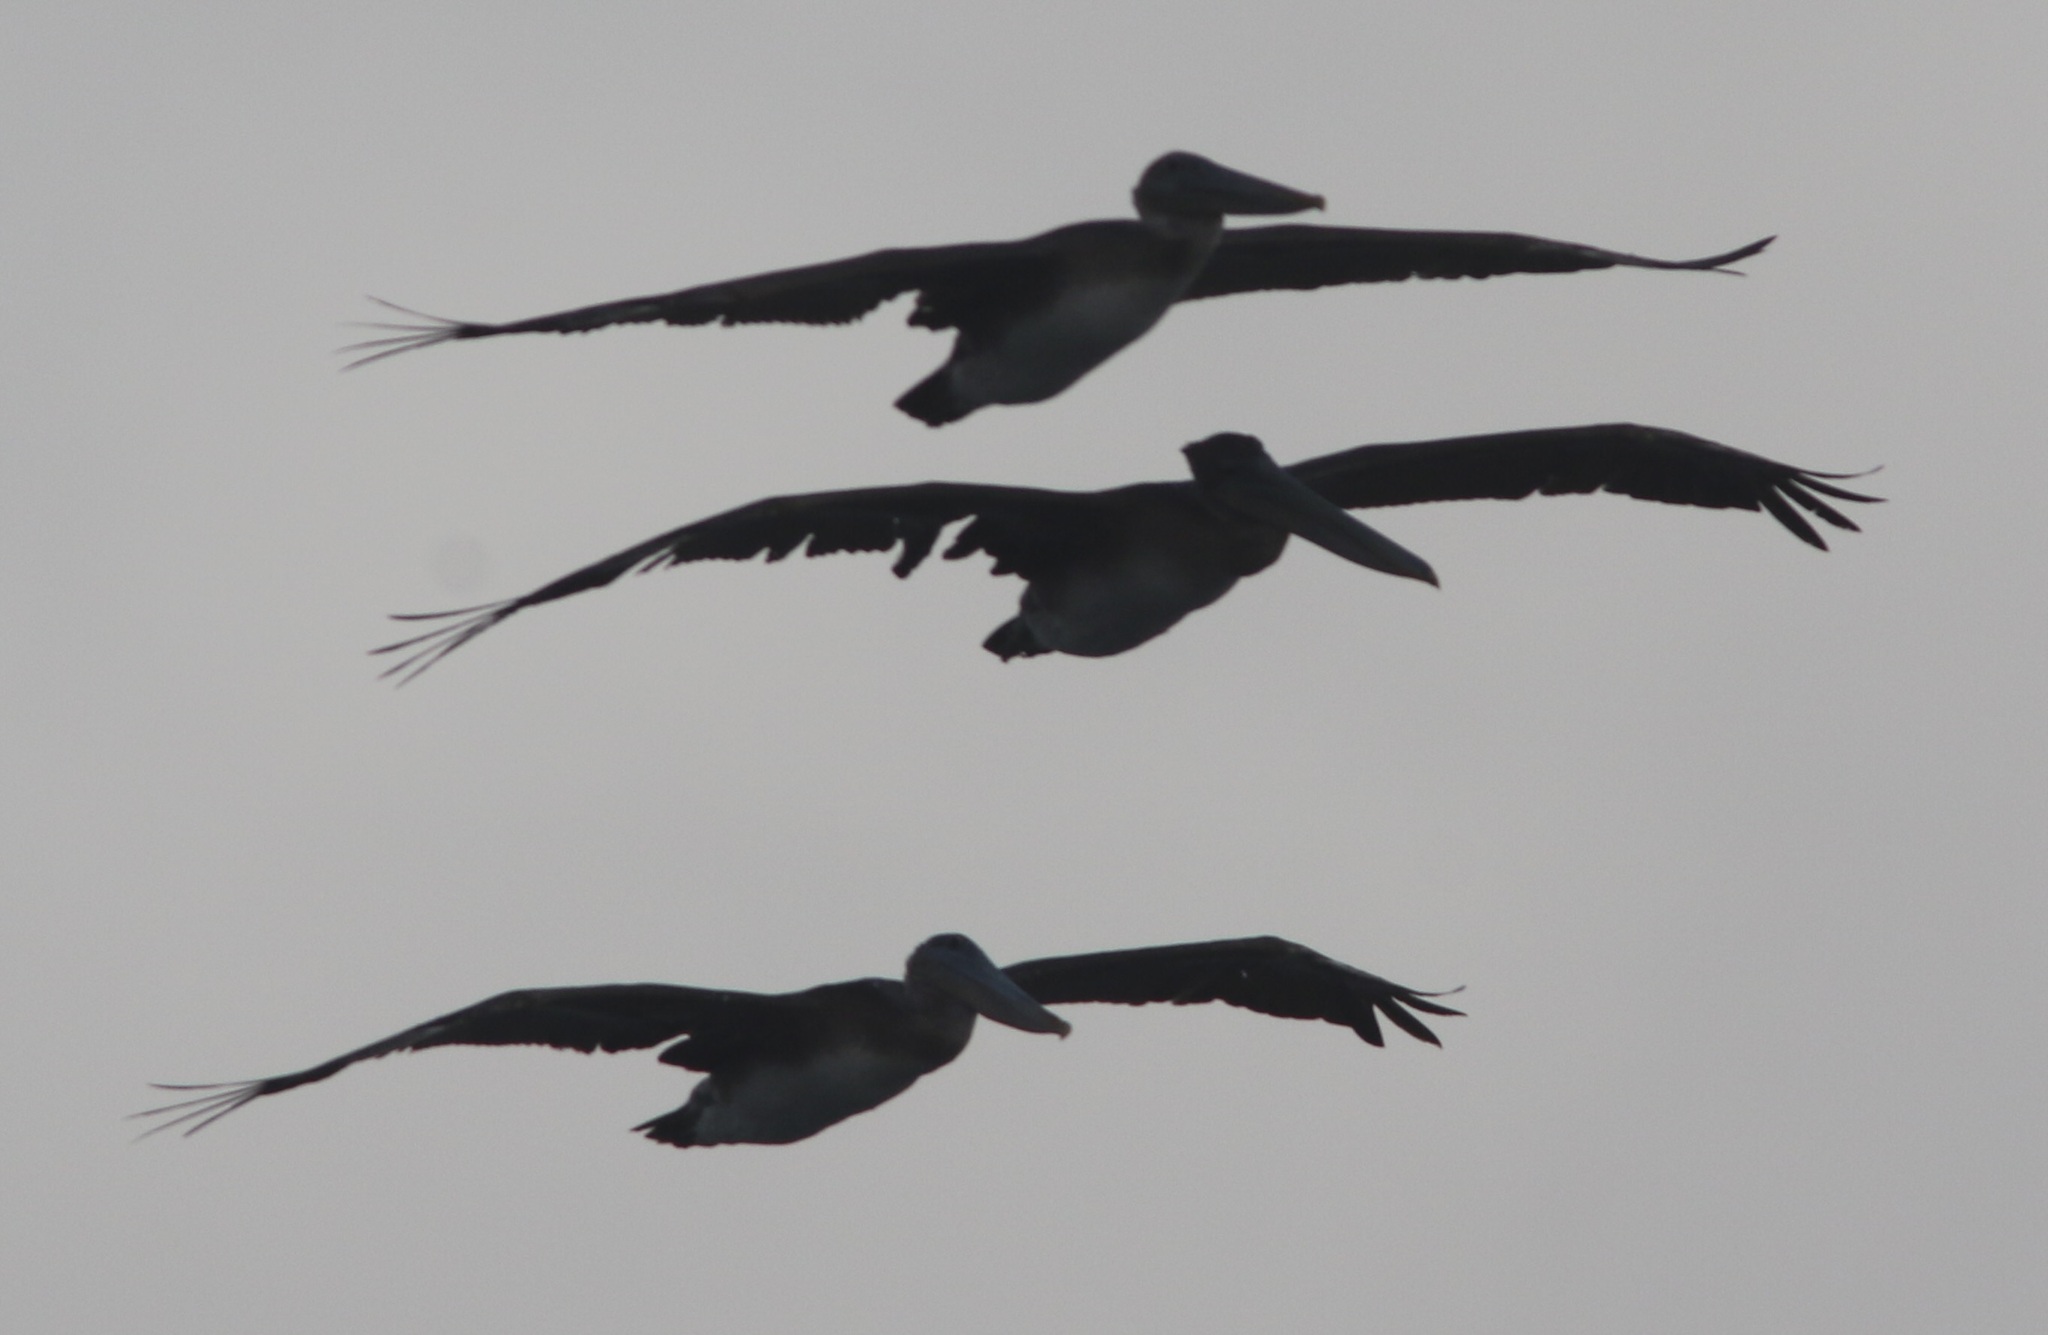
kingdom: Animalia
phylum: Chordata
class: Aves
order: Pelecaniformes
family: Pelecanidae
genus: Pelecanus
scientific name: Pelecanus occidentalis
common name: Brown pelican
